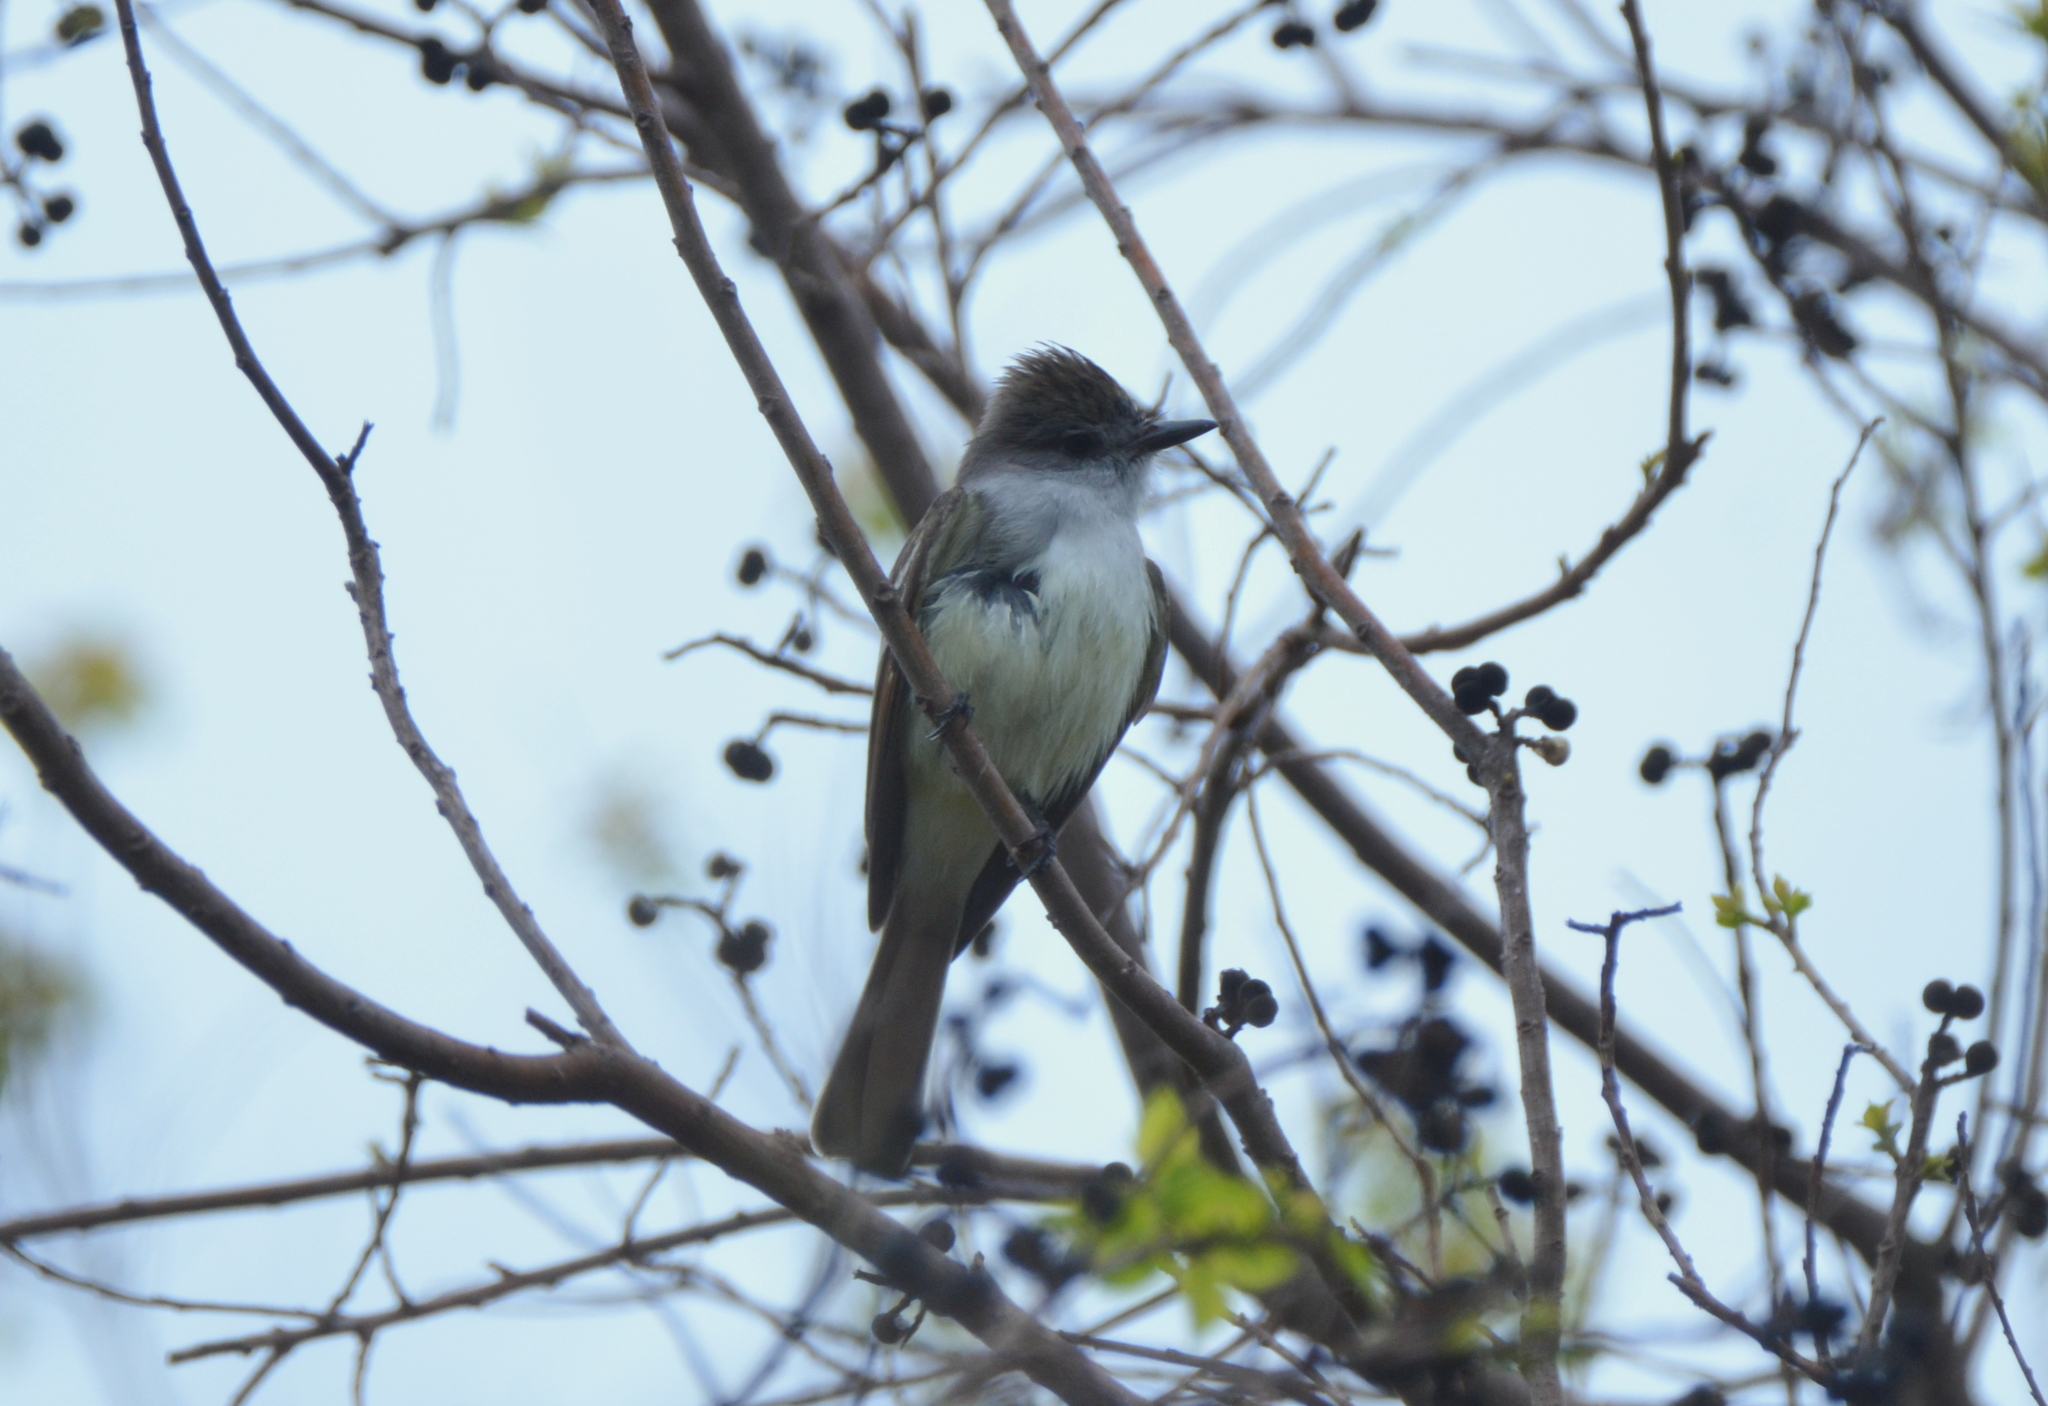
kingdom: Animalia
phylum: Chordata
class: Aves
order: Passeriformes
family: Tyrannidae
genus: Myiarchus
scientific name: Myiarchus cinerascens
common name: Ash-throated flycatcher
